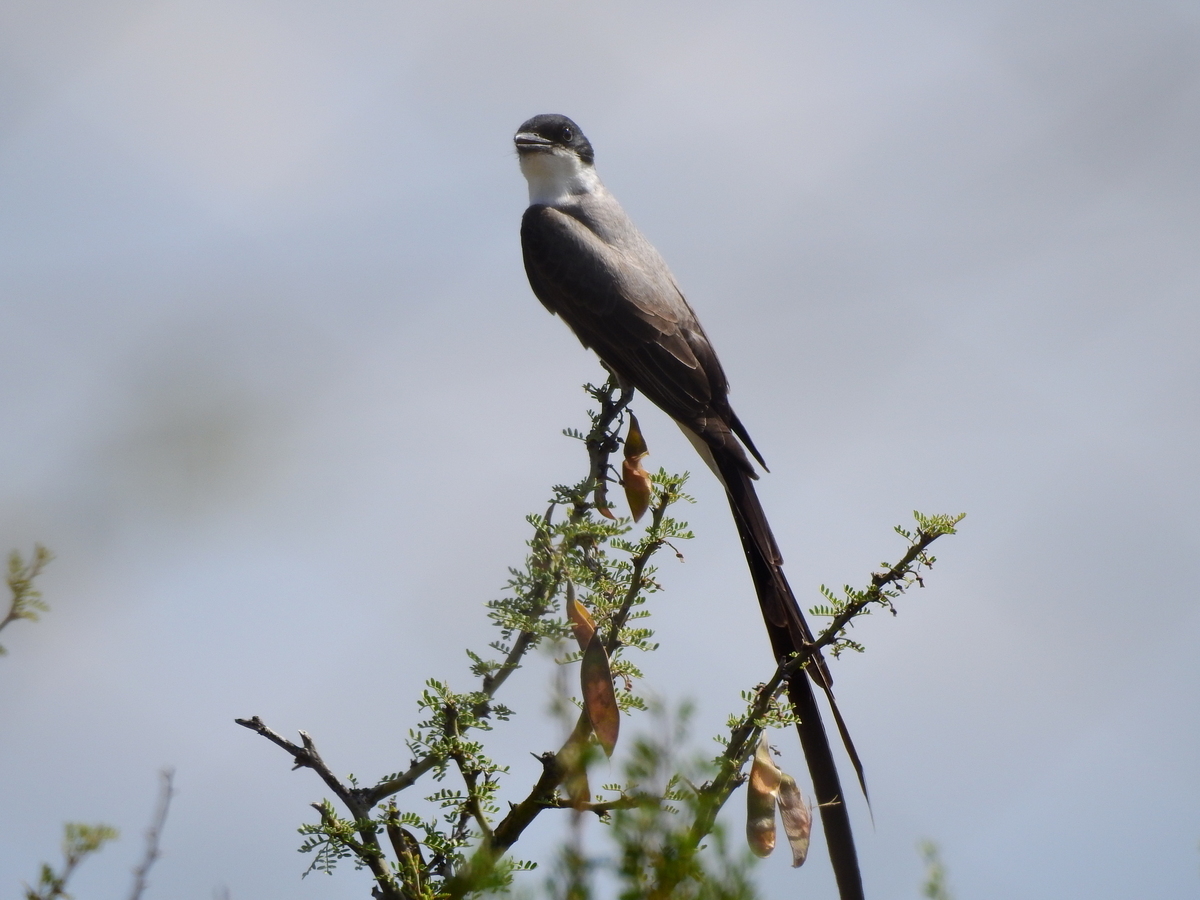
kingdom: Animalia
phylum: Chordata
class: Aves
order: Passeriformes
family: Tyrannidae
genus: Tyrannus
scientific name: Tyrannus savana
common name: Fork-tailed flycatcher
